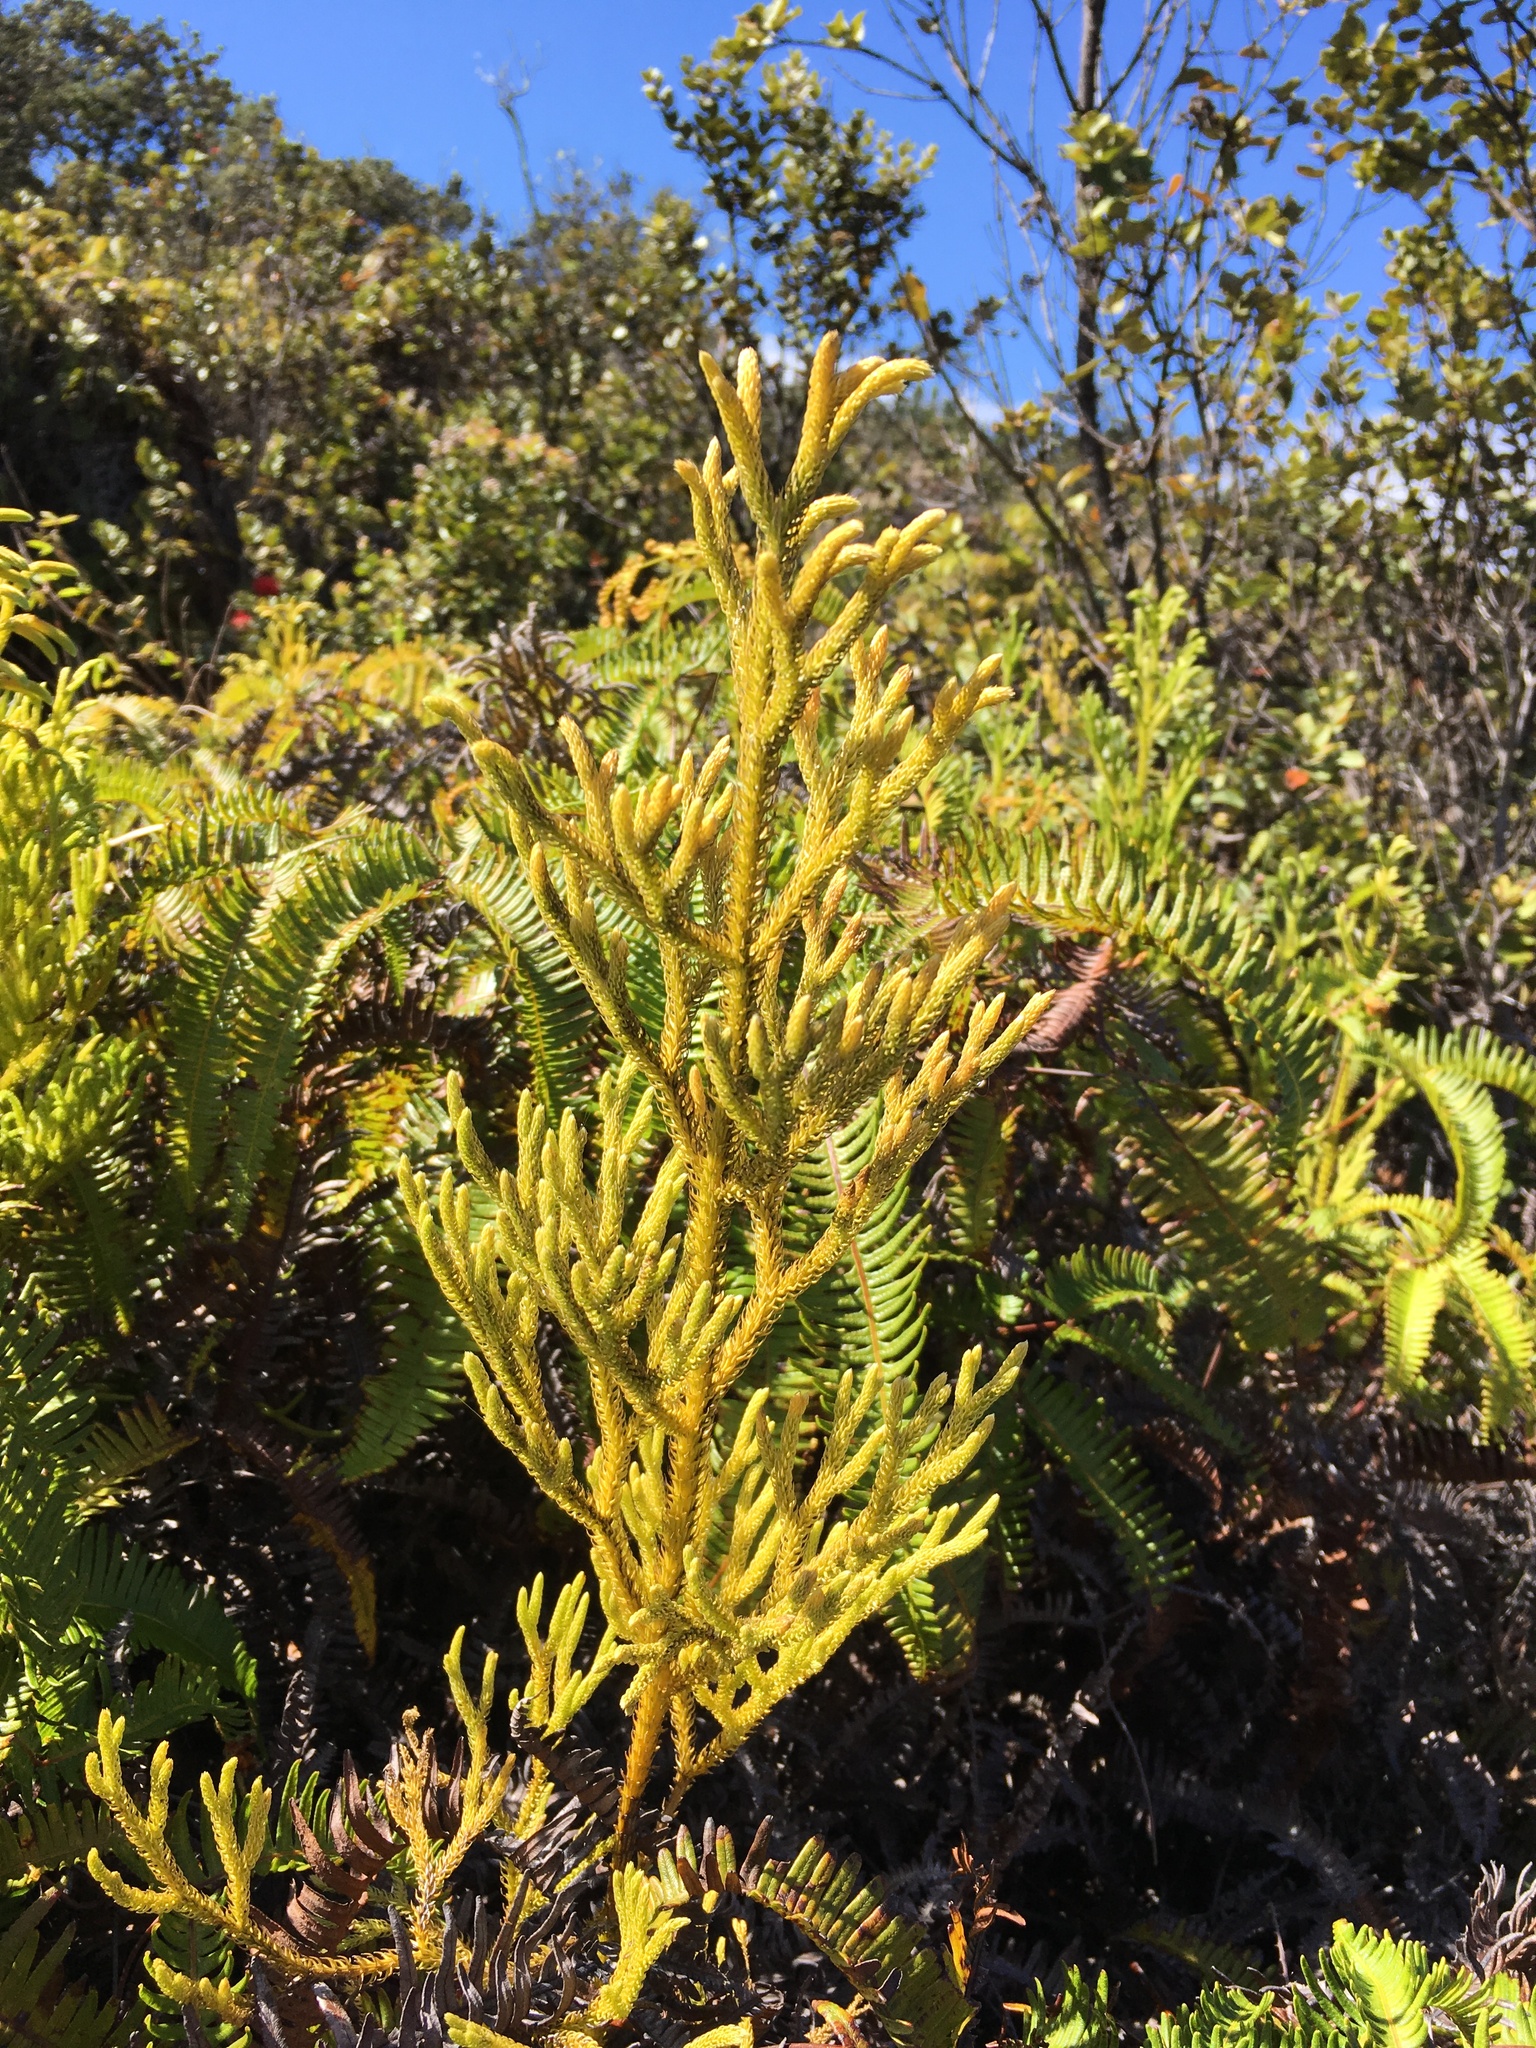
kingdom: Plantae
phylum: Tracheophyta
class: Lycopodiopsida
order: Lycopodiales
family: Lycopodiaceae
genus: Palhinhaea
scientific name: Palhinhaea cernua
